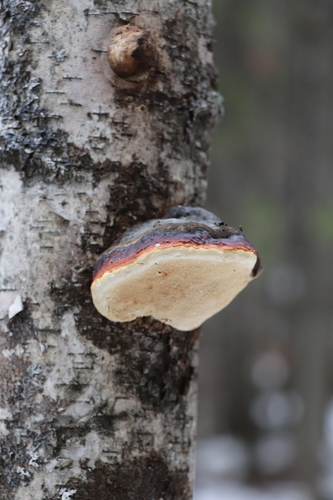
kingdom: Fungi
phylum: Basidiomycota
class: Agaricomycetes
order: Polyporales
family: Fomitopsidaceae
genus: Fomitopsis
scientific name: Fomitopsis pinicola
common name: Red-belted bracket
